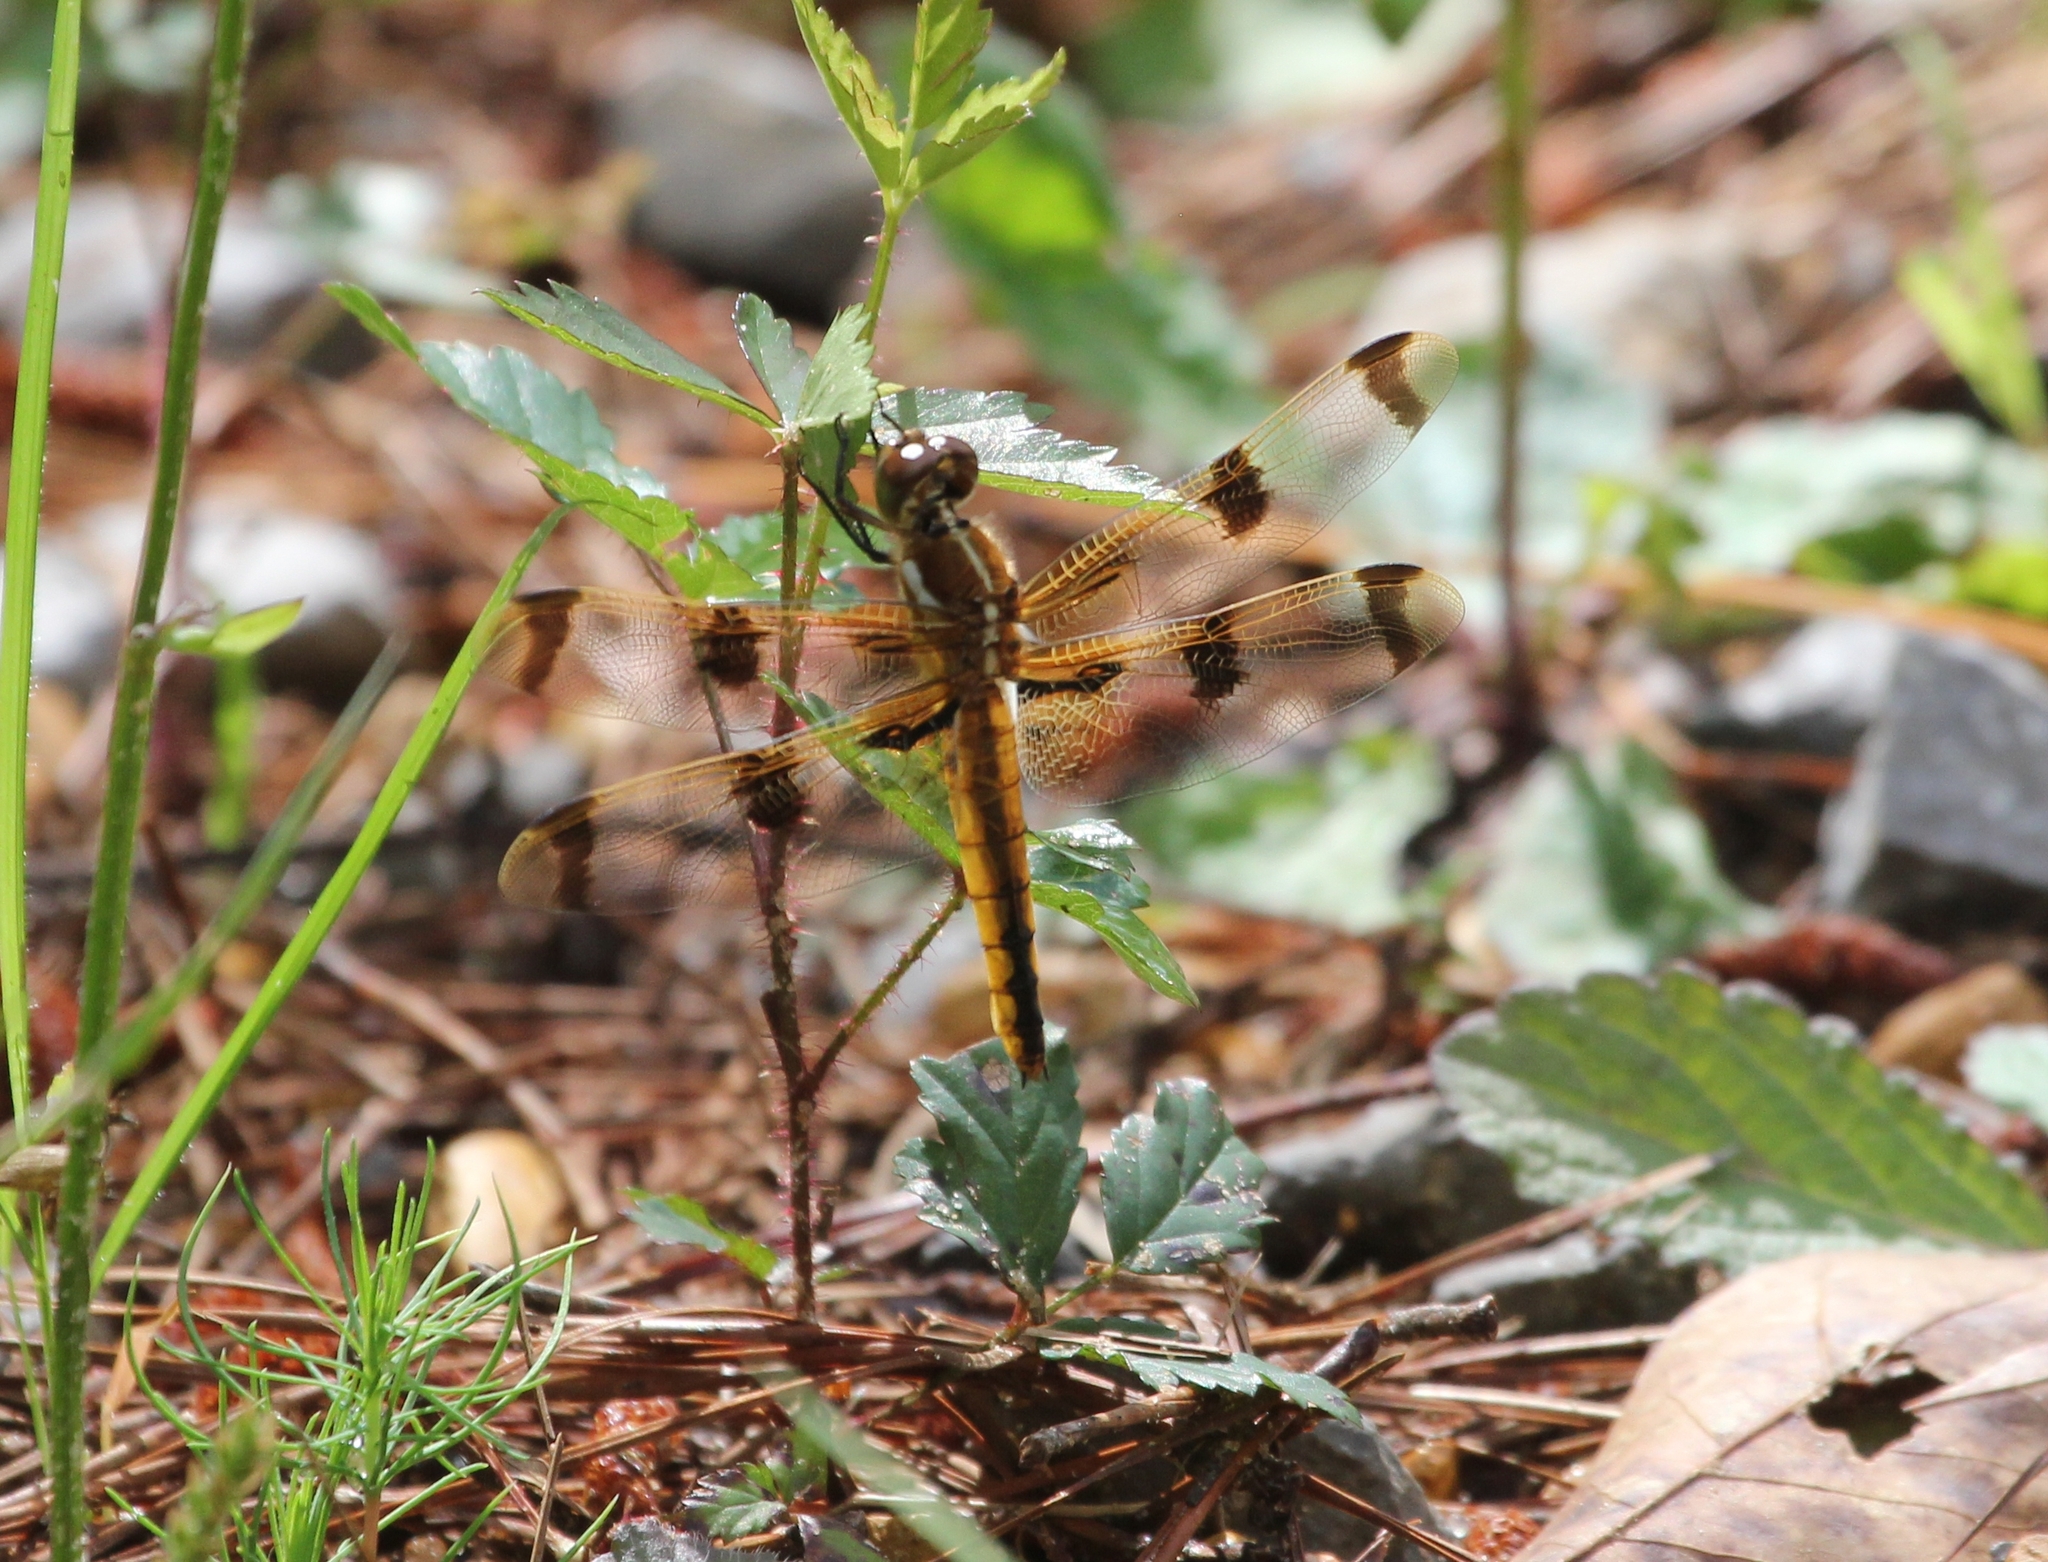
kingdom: Animalia
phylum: Arthropoda
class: Insecta
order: Odonata
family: Libellulidae
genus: Libellula
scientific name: Libellula semifasciata
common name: Painted skimmer
